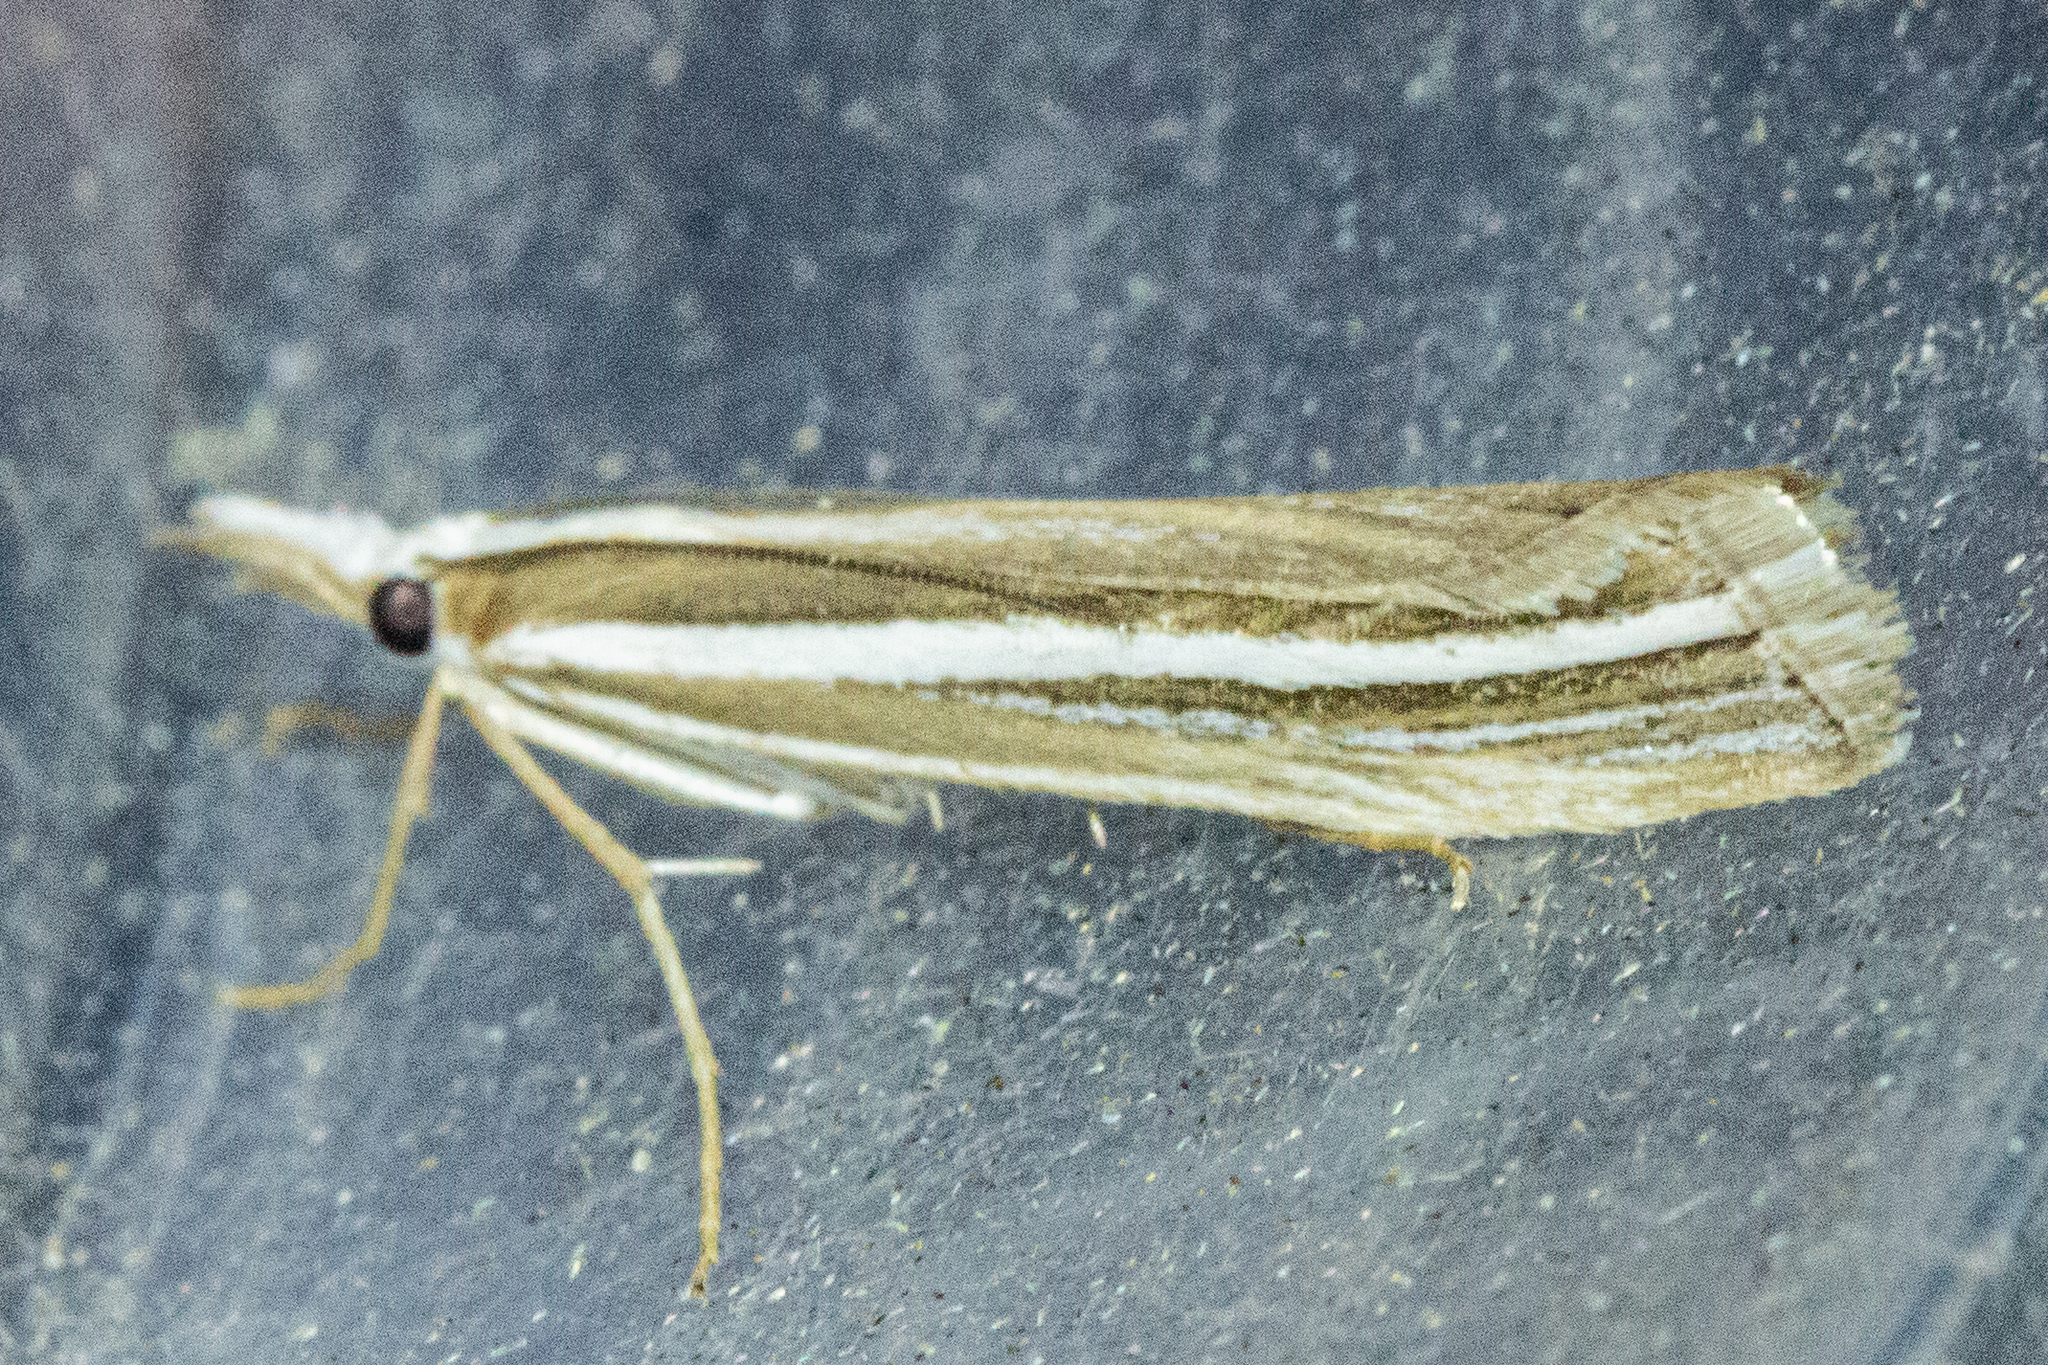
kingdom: Animalia
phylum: Arthropoda
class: Insecta
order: Lepidoptera
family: Crambidae
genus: Orocrambus
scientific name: Orocrambus enchophorus
